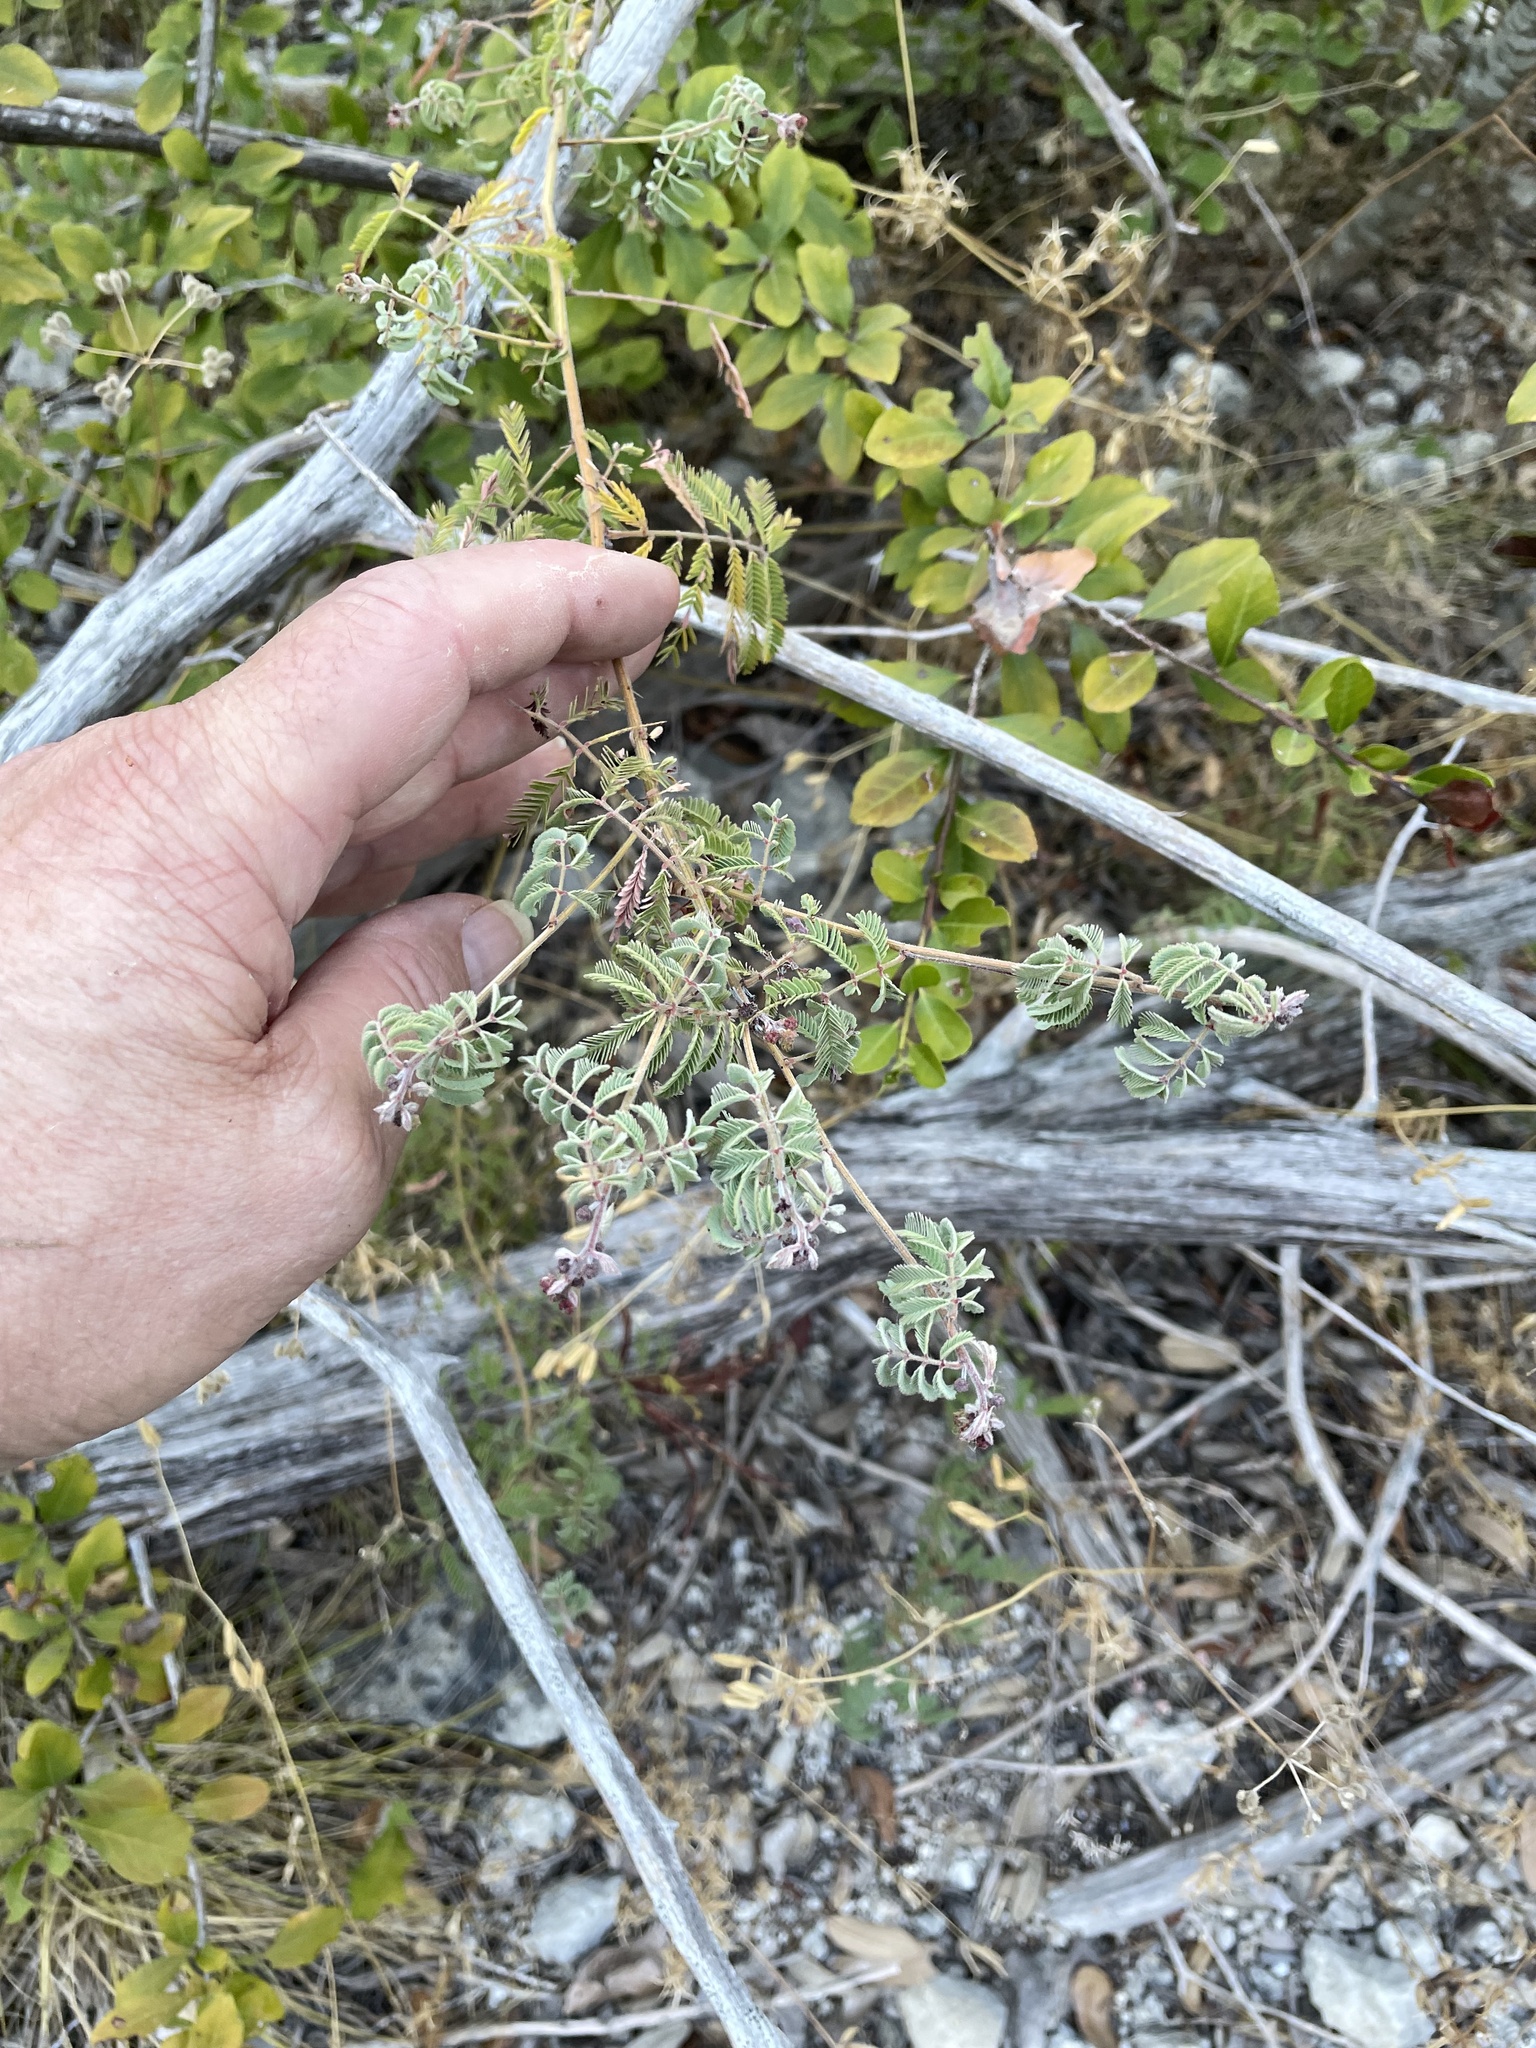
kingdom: Plantae
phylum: Tracheophyta
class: Magnoliopsida
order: Fabales
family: Fabaceae
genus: Desmanthus
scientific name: Desmanthus velutinus
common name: Velvet bundle-flower
